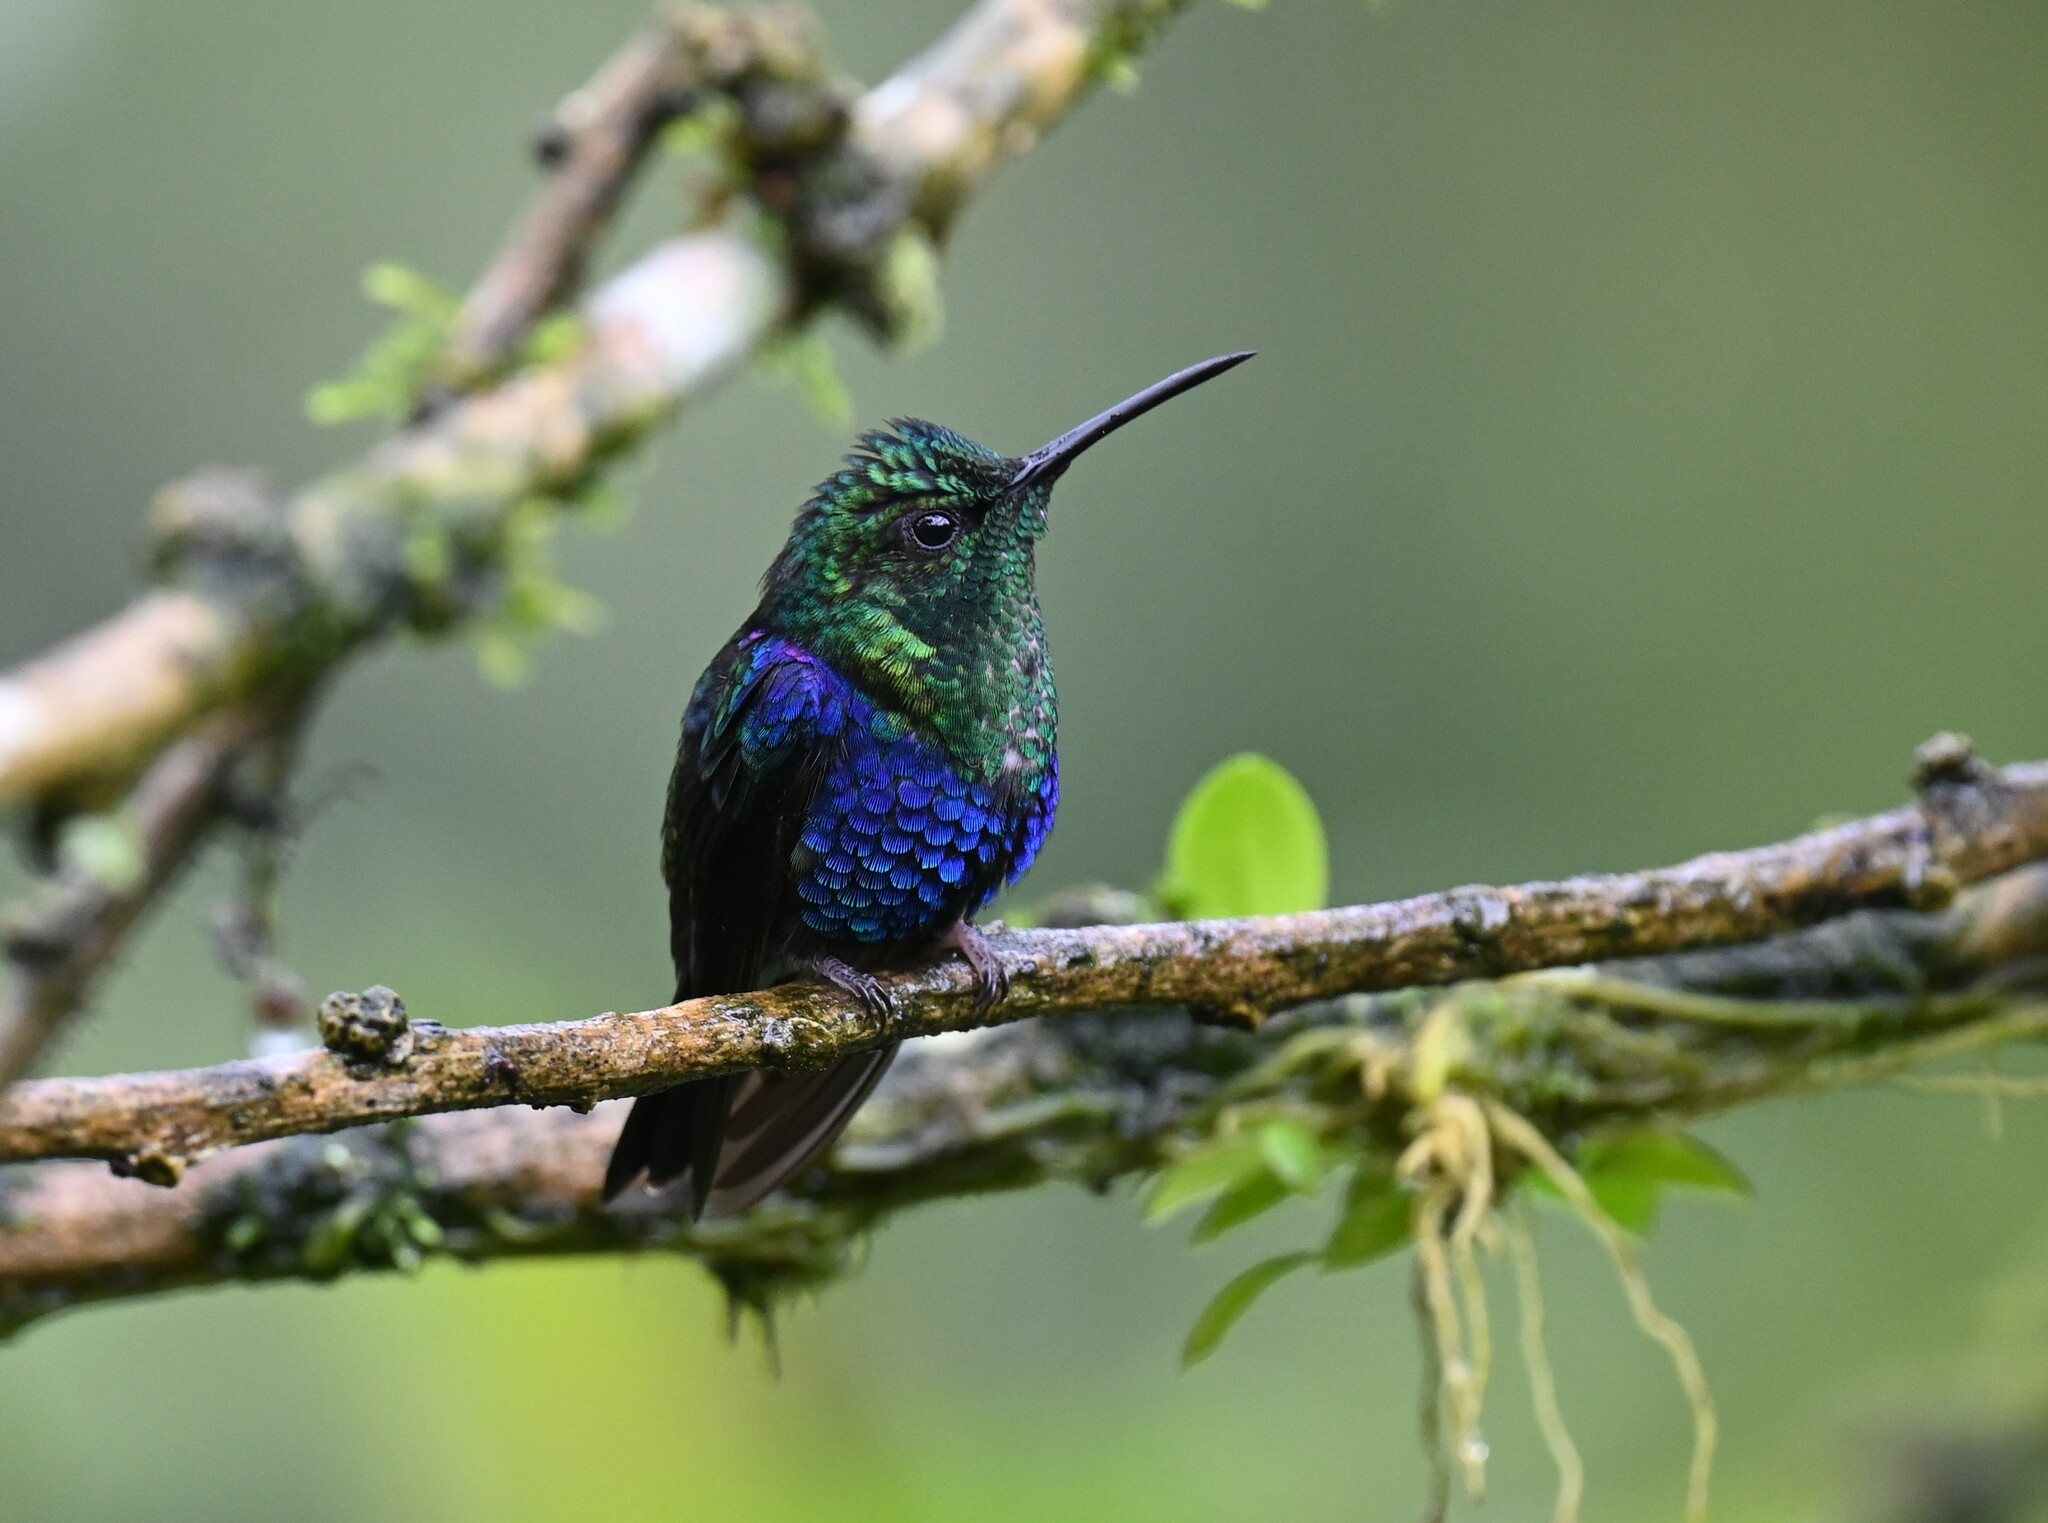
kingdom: Animalia
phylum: Chordata
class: Aves
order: Apodiformes
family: Trochilidae
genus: Thalurania
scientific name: Thalurania colombica
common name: Crowned woodnymph
